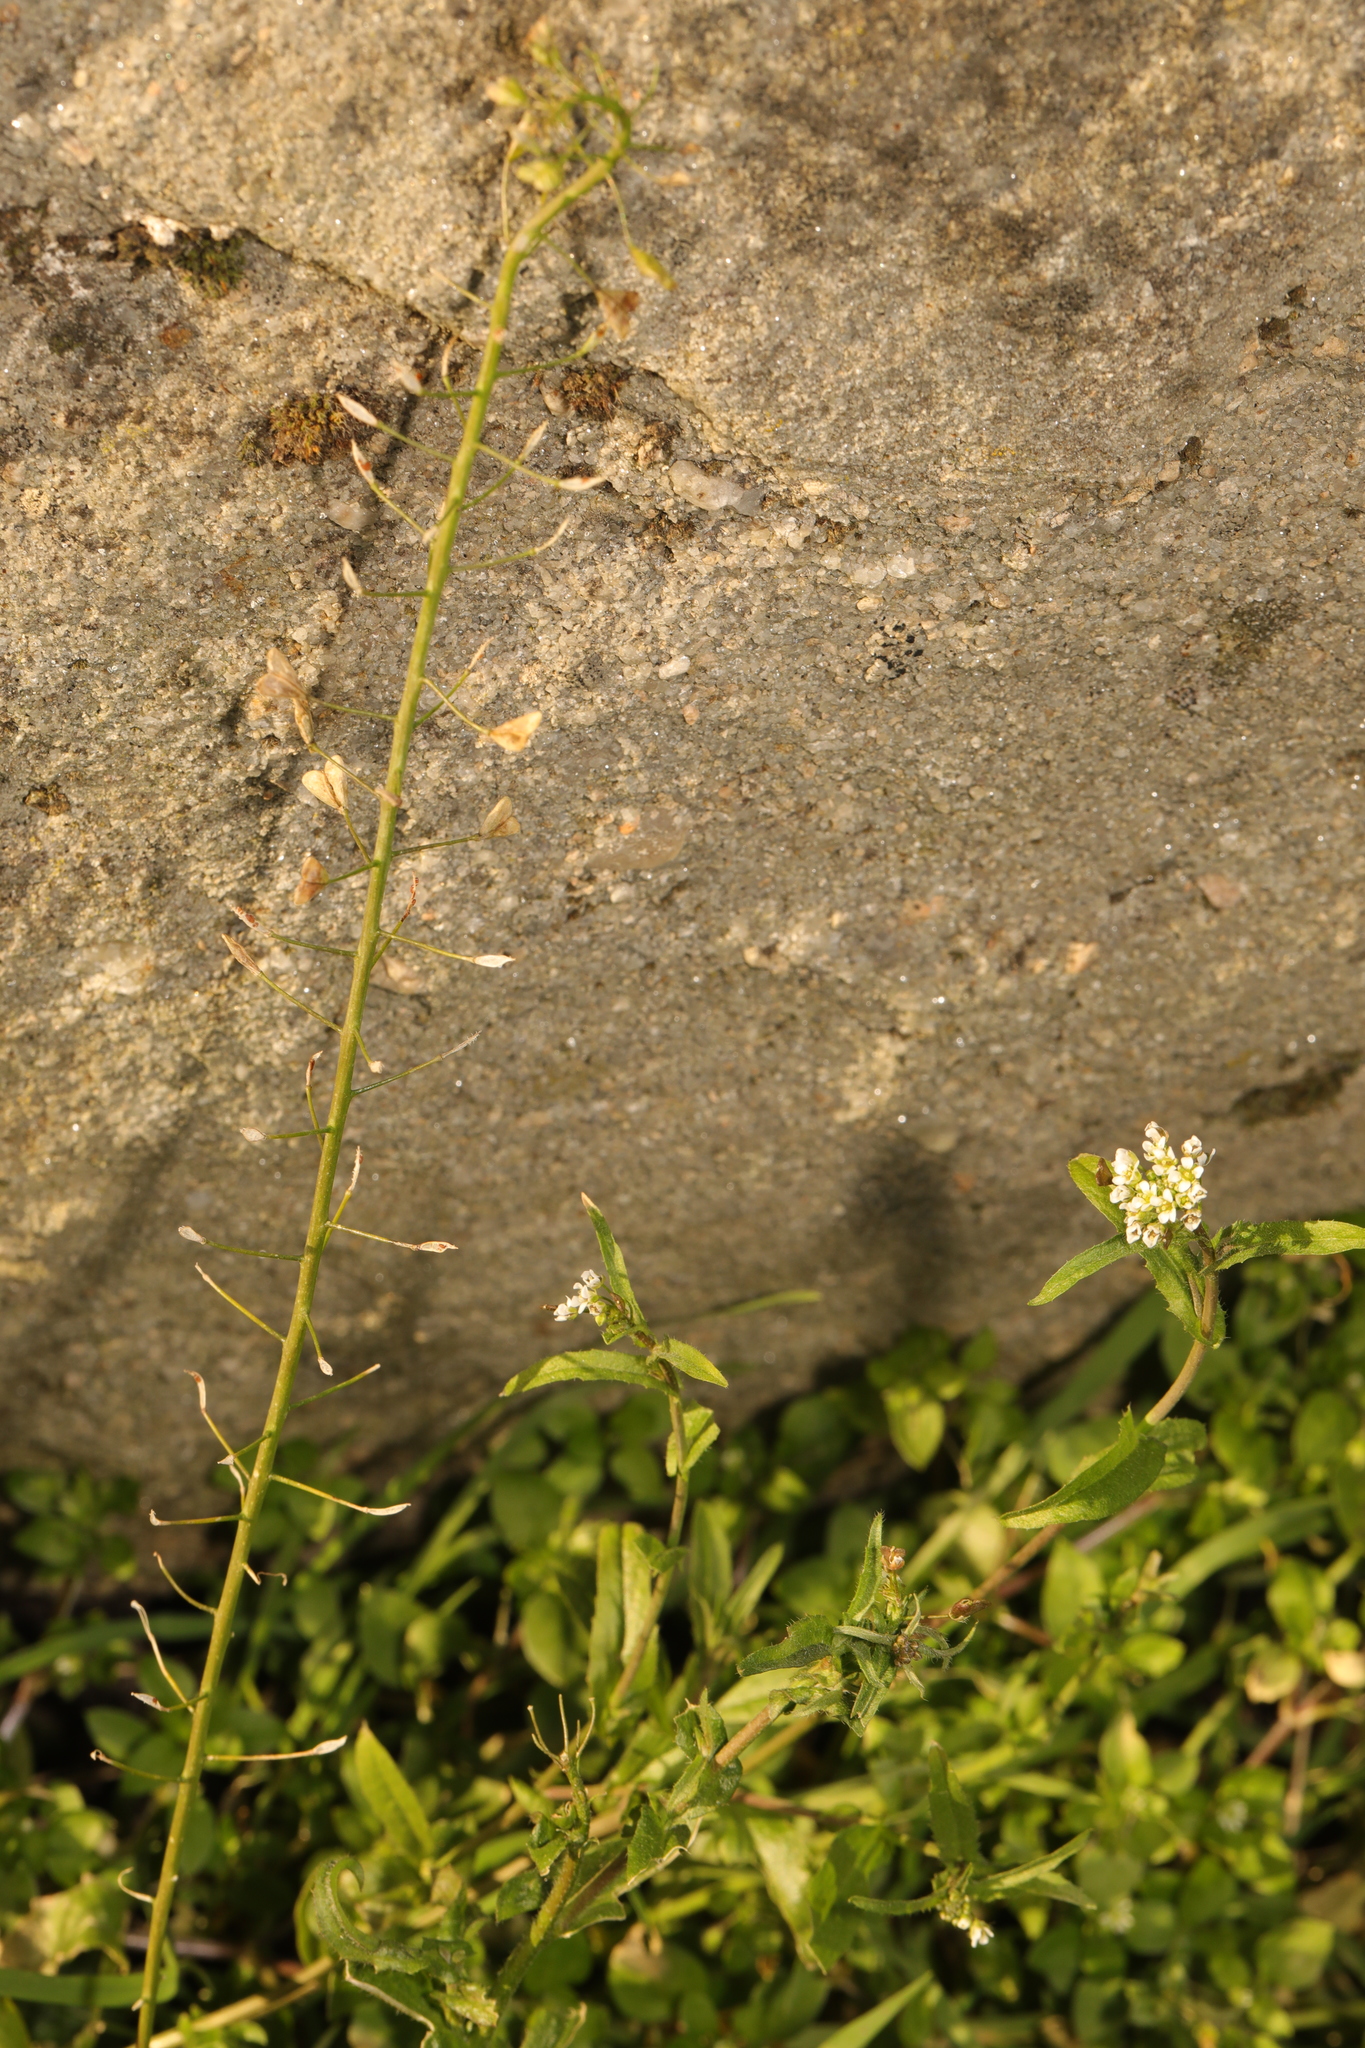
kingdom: Plantae
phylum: Tracheophyta
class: Magnoliopsida
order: Brassicales
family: Brassicaceae
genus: Capsella
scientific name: Capsella bursa-pastoris
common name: Shepherd's purse
